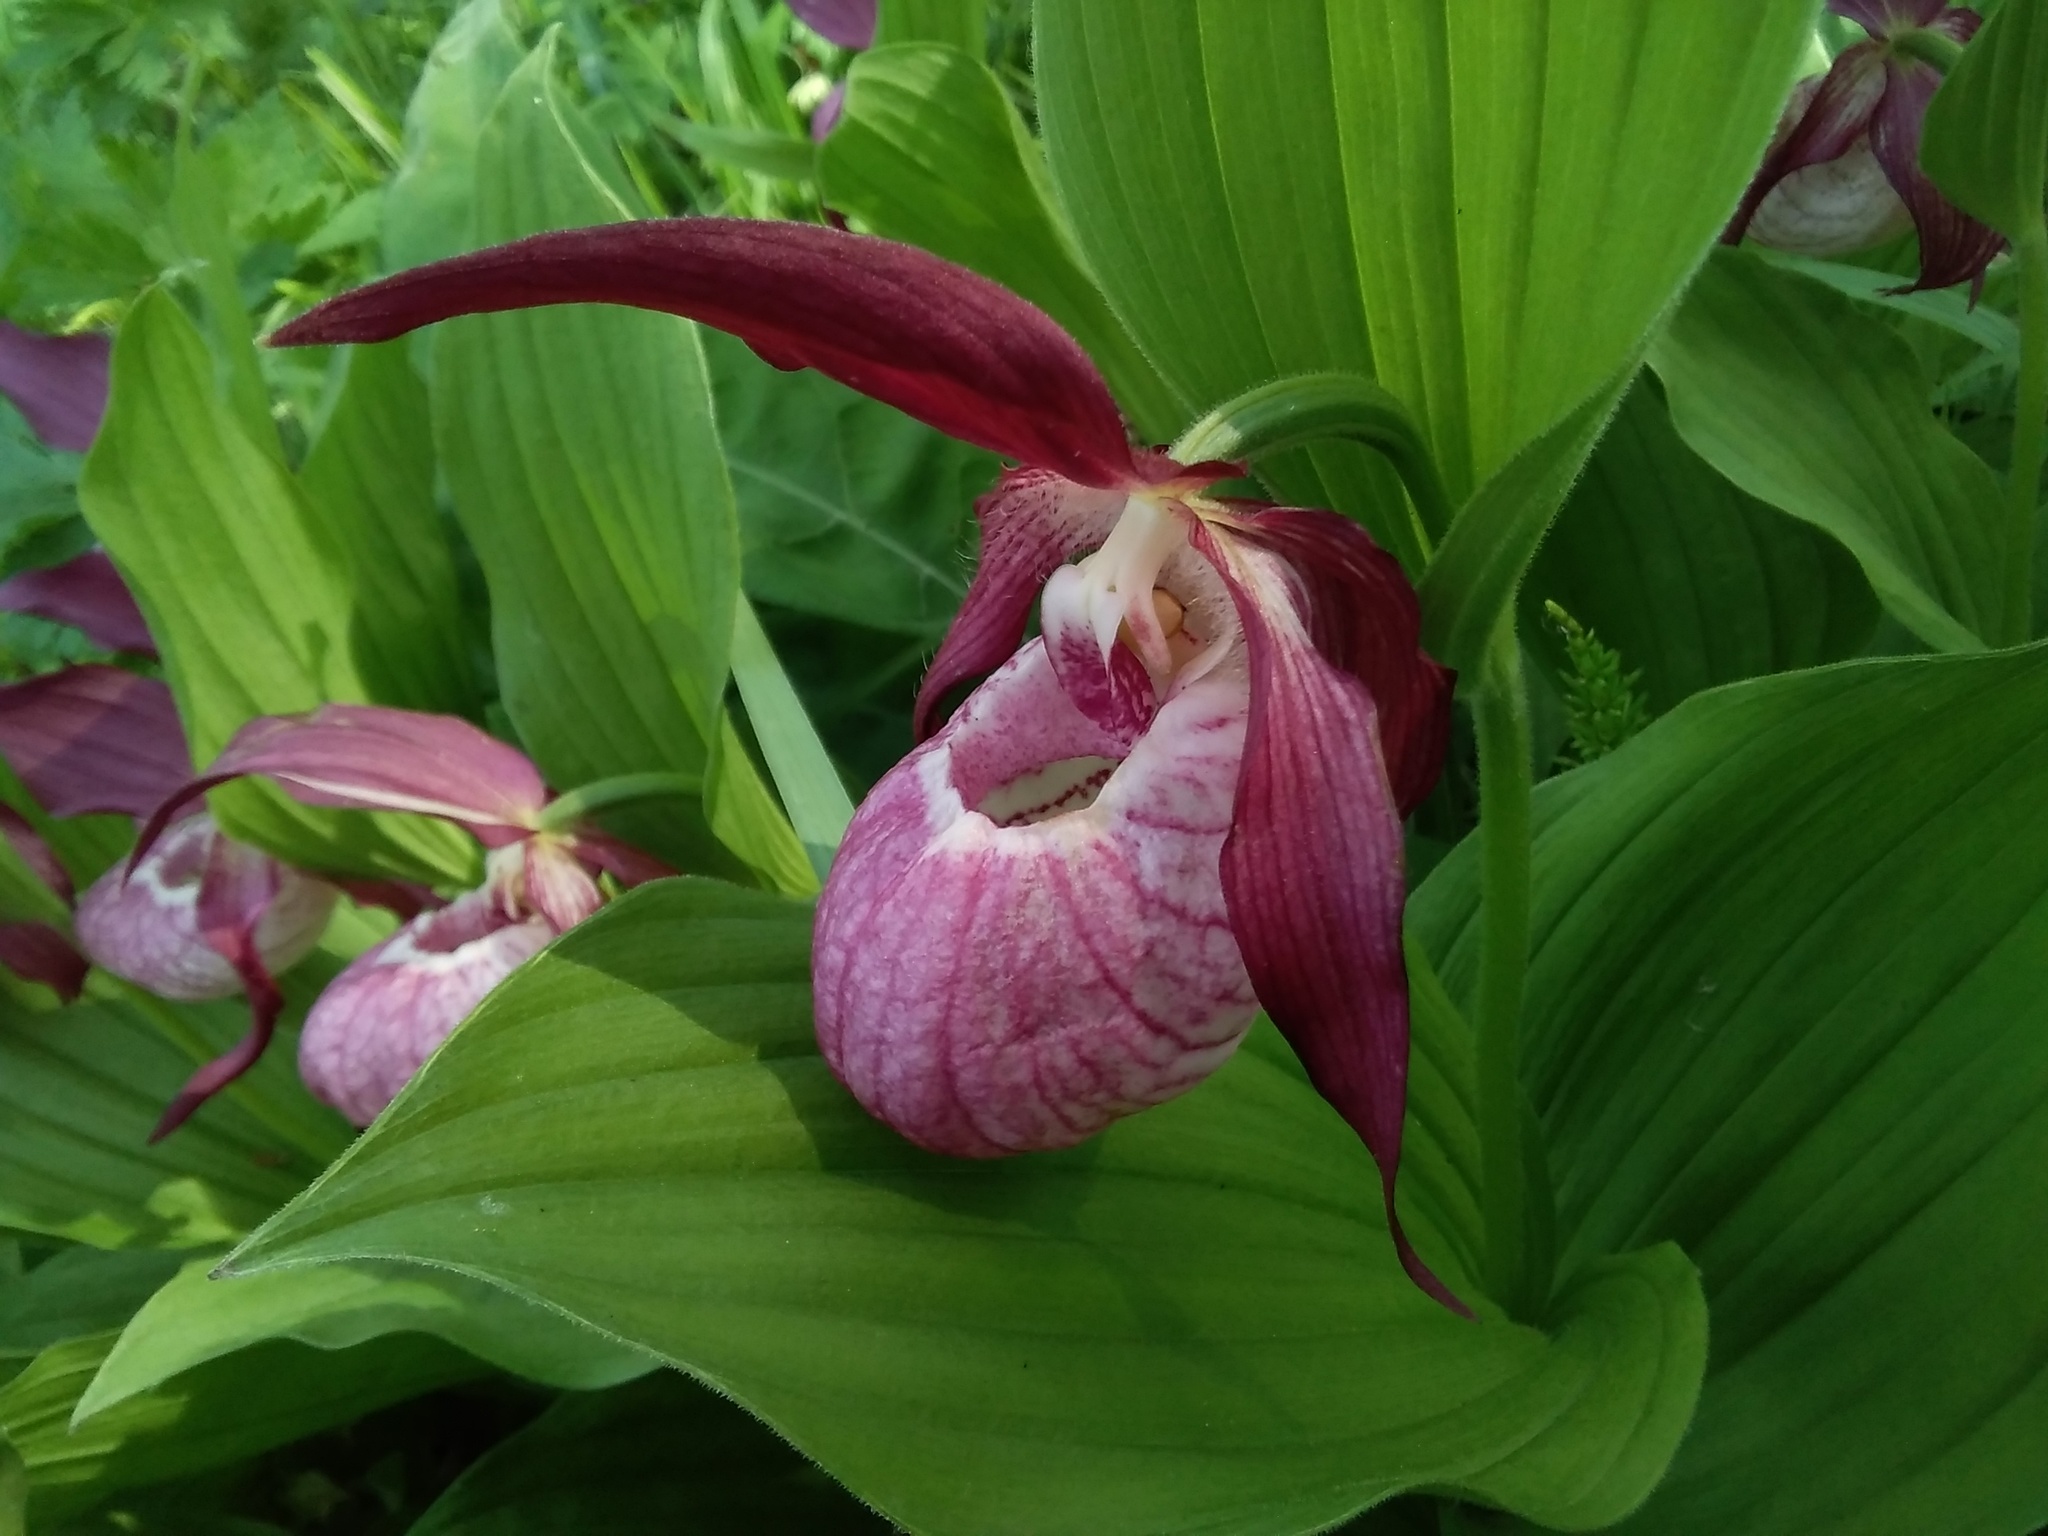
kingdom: Plantae
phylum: Tracheophyta
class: Liliopsida
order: Asparagales
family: Orchidaceae
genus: Cypripedium
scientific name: Cypripedium ventricosum
